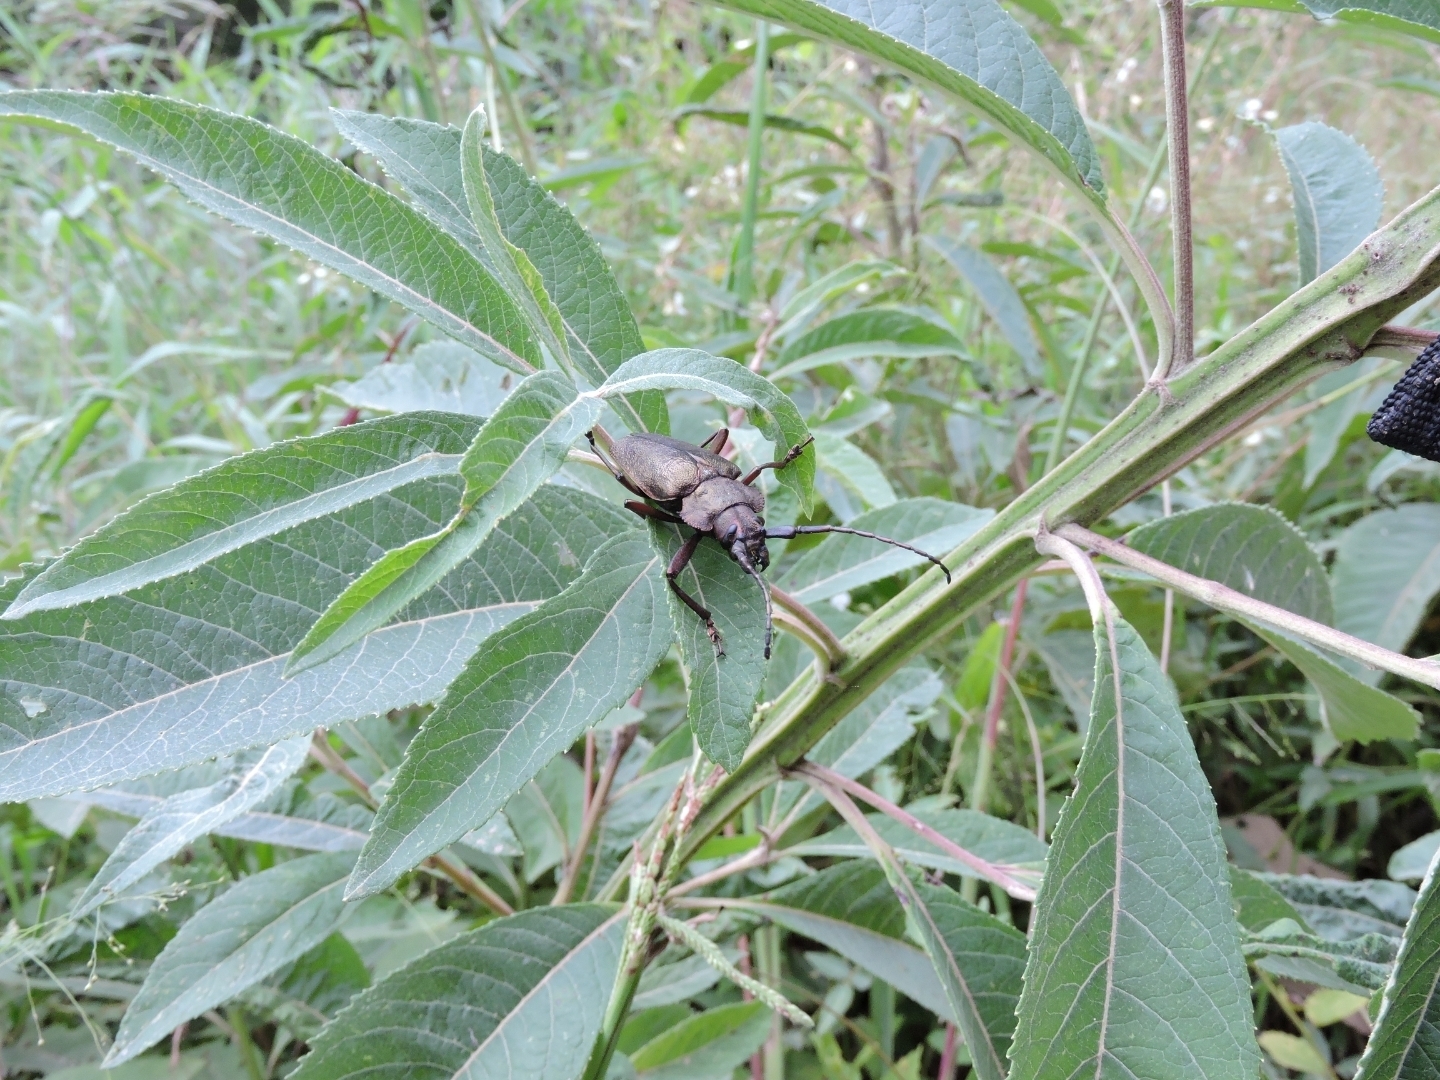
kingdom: Animalia
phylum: Arthropoda
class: Insecta
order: Coleoptera
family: Cerambycidae
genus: Pyrodes
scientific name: Pyrodes nitidus
